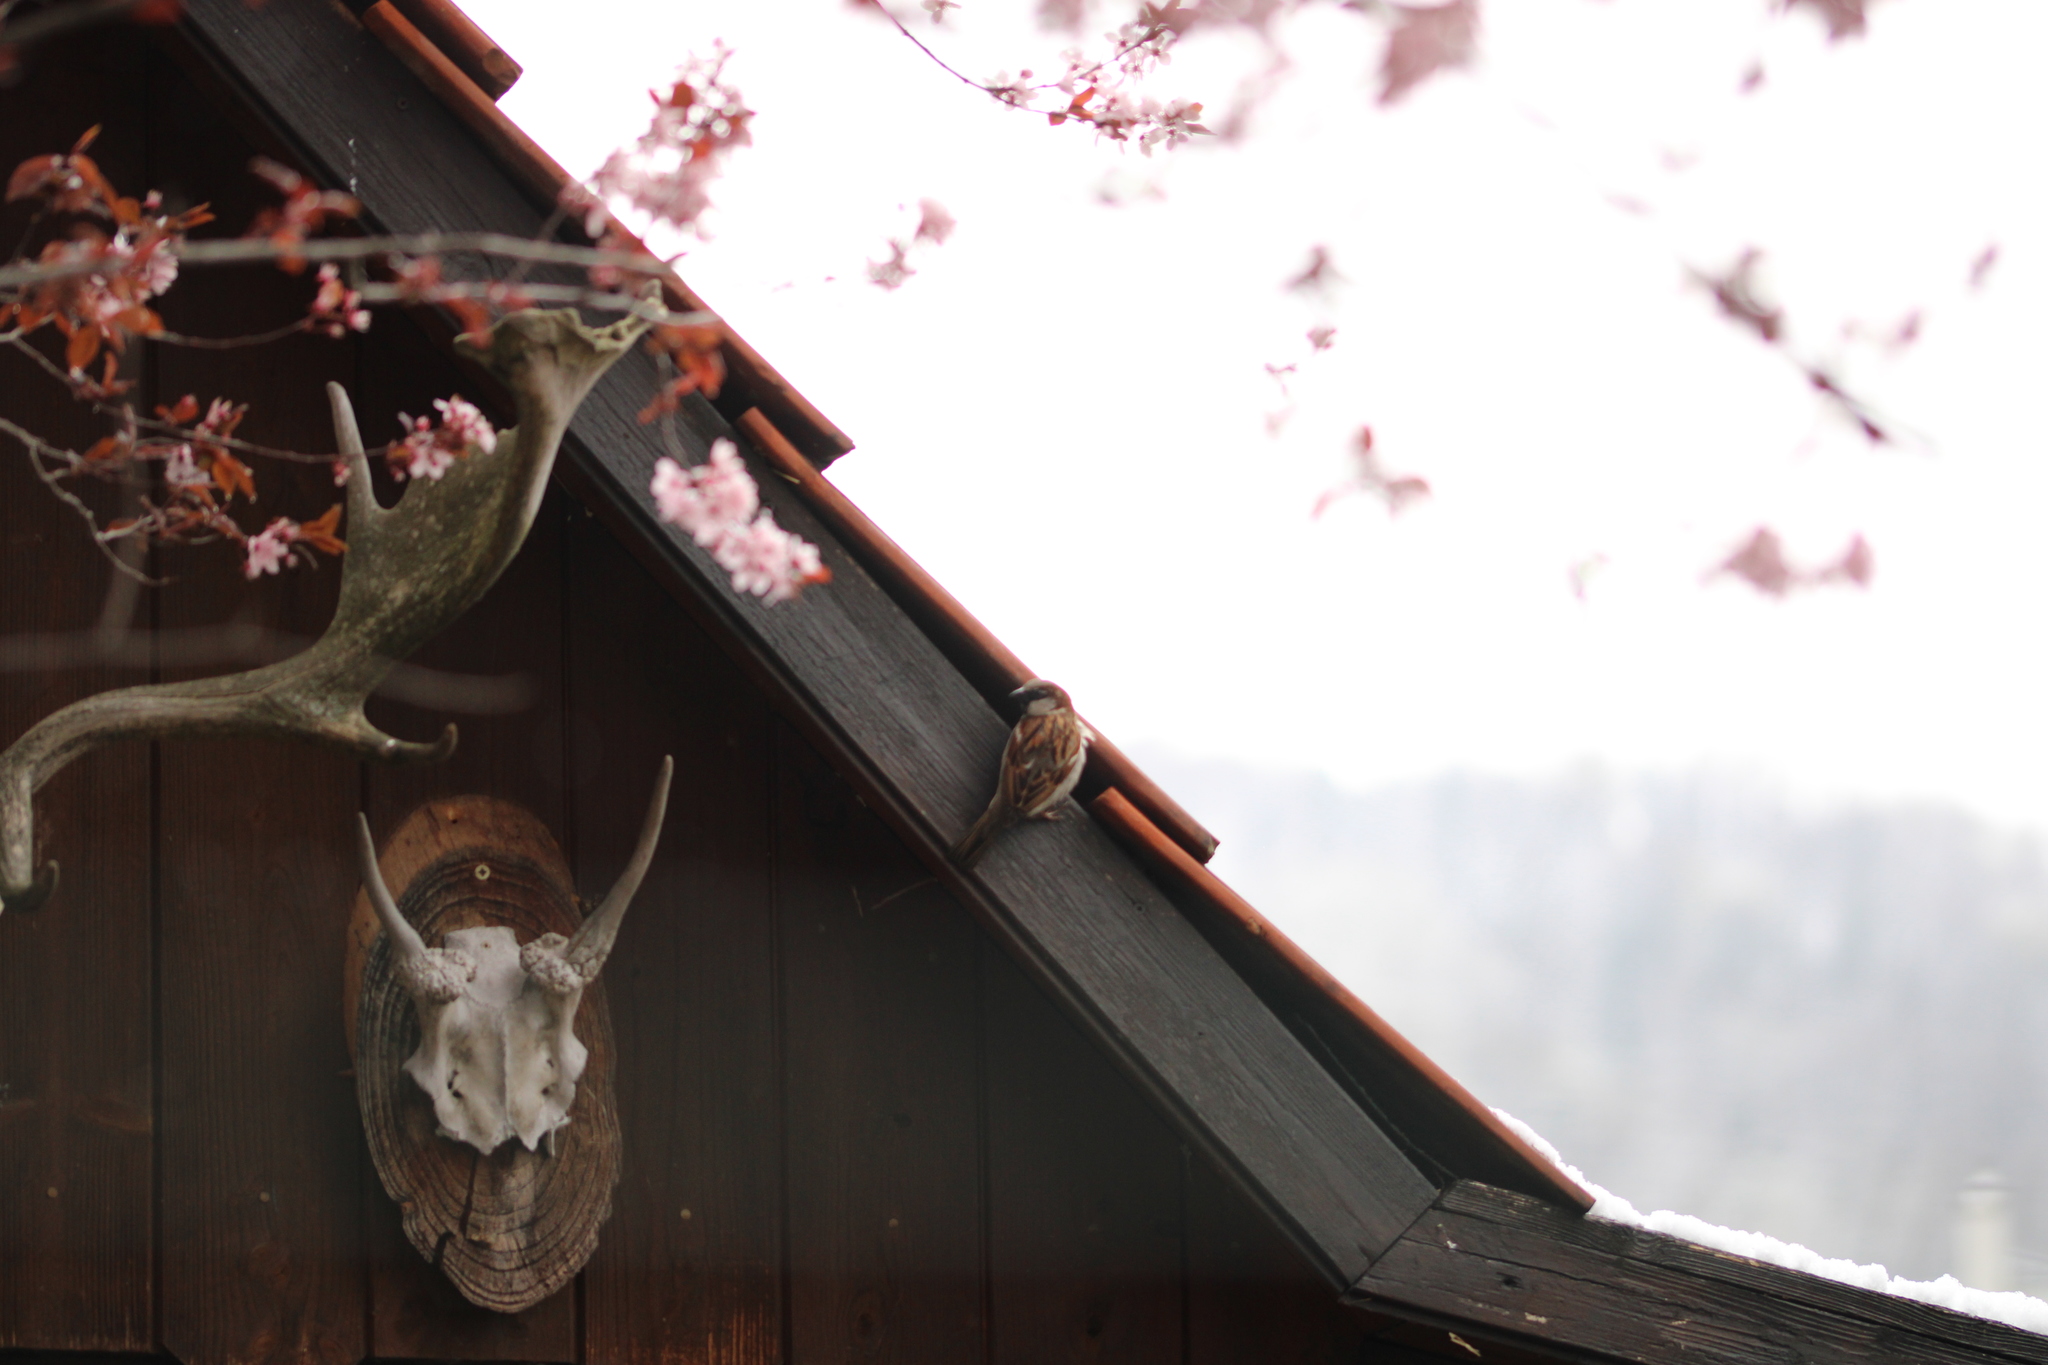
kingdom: Animalia
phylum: Chordata
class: Aves
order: Passeriformes
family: Passeridae
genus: Passer
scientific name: Passer domesticus
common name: House sparrow
